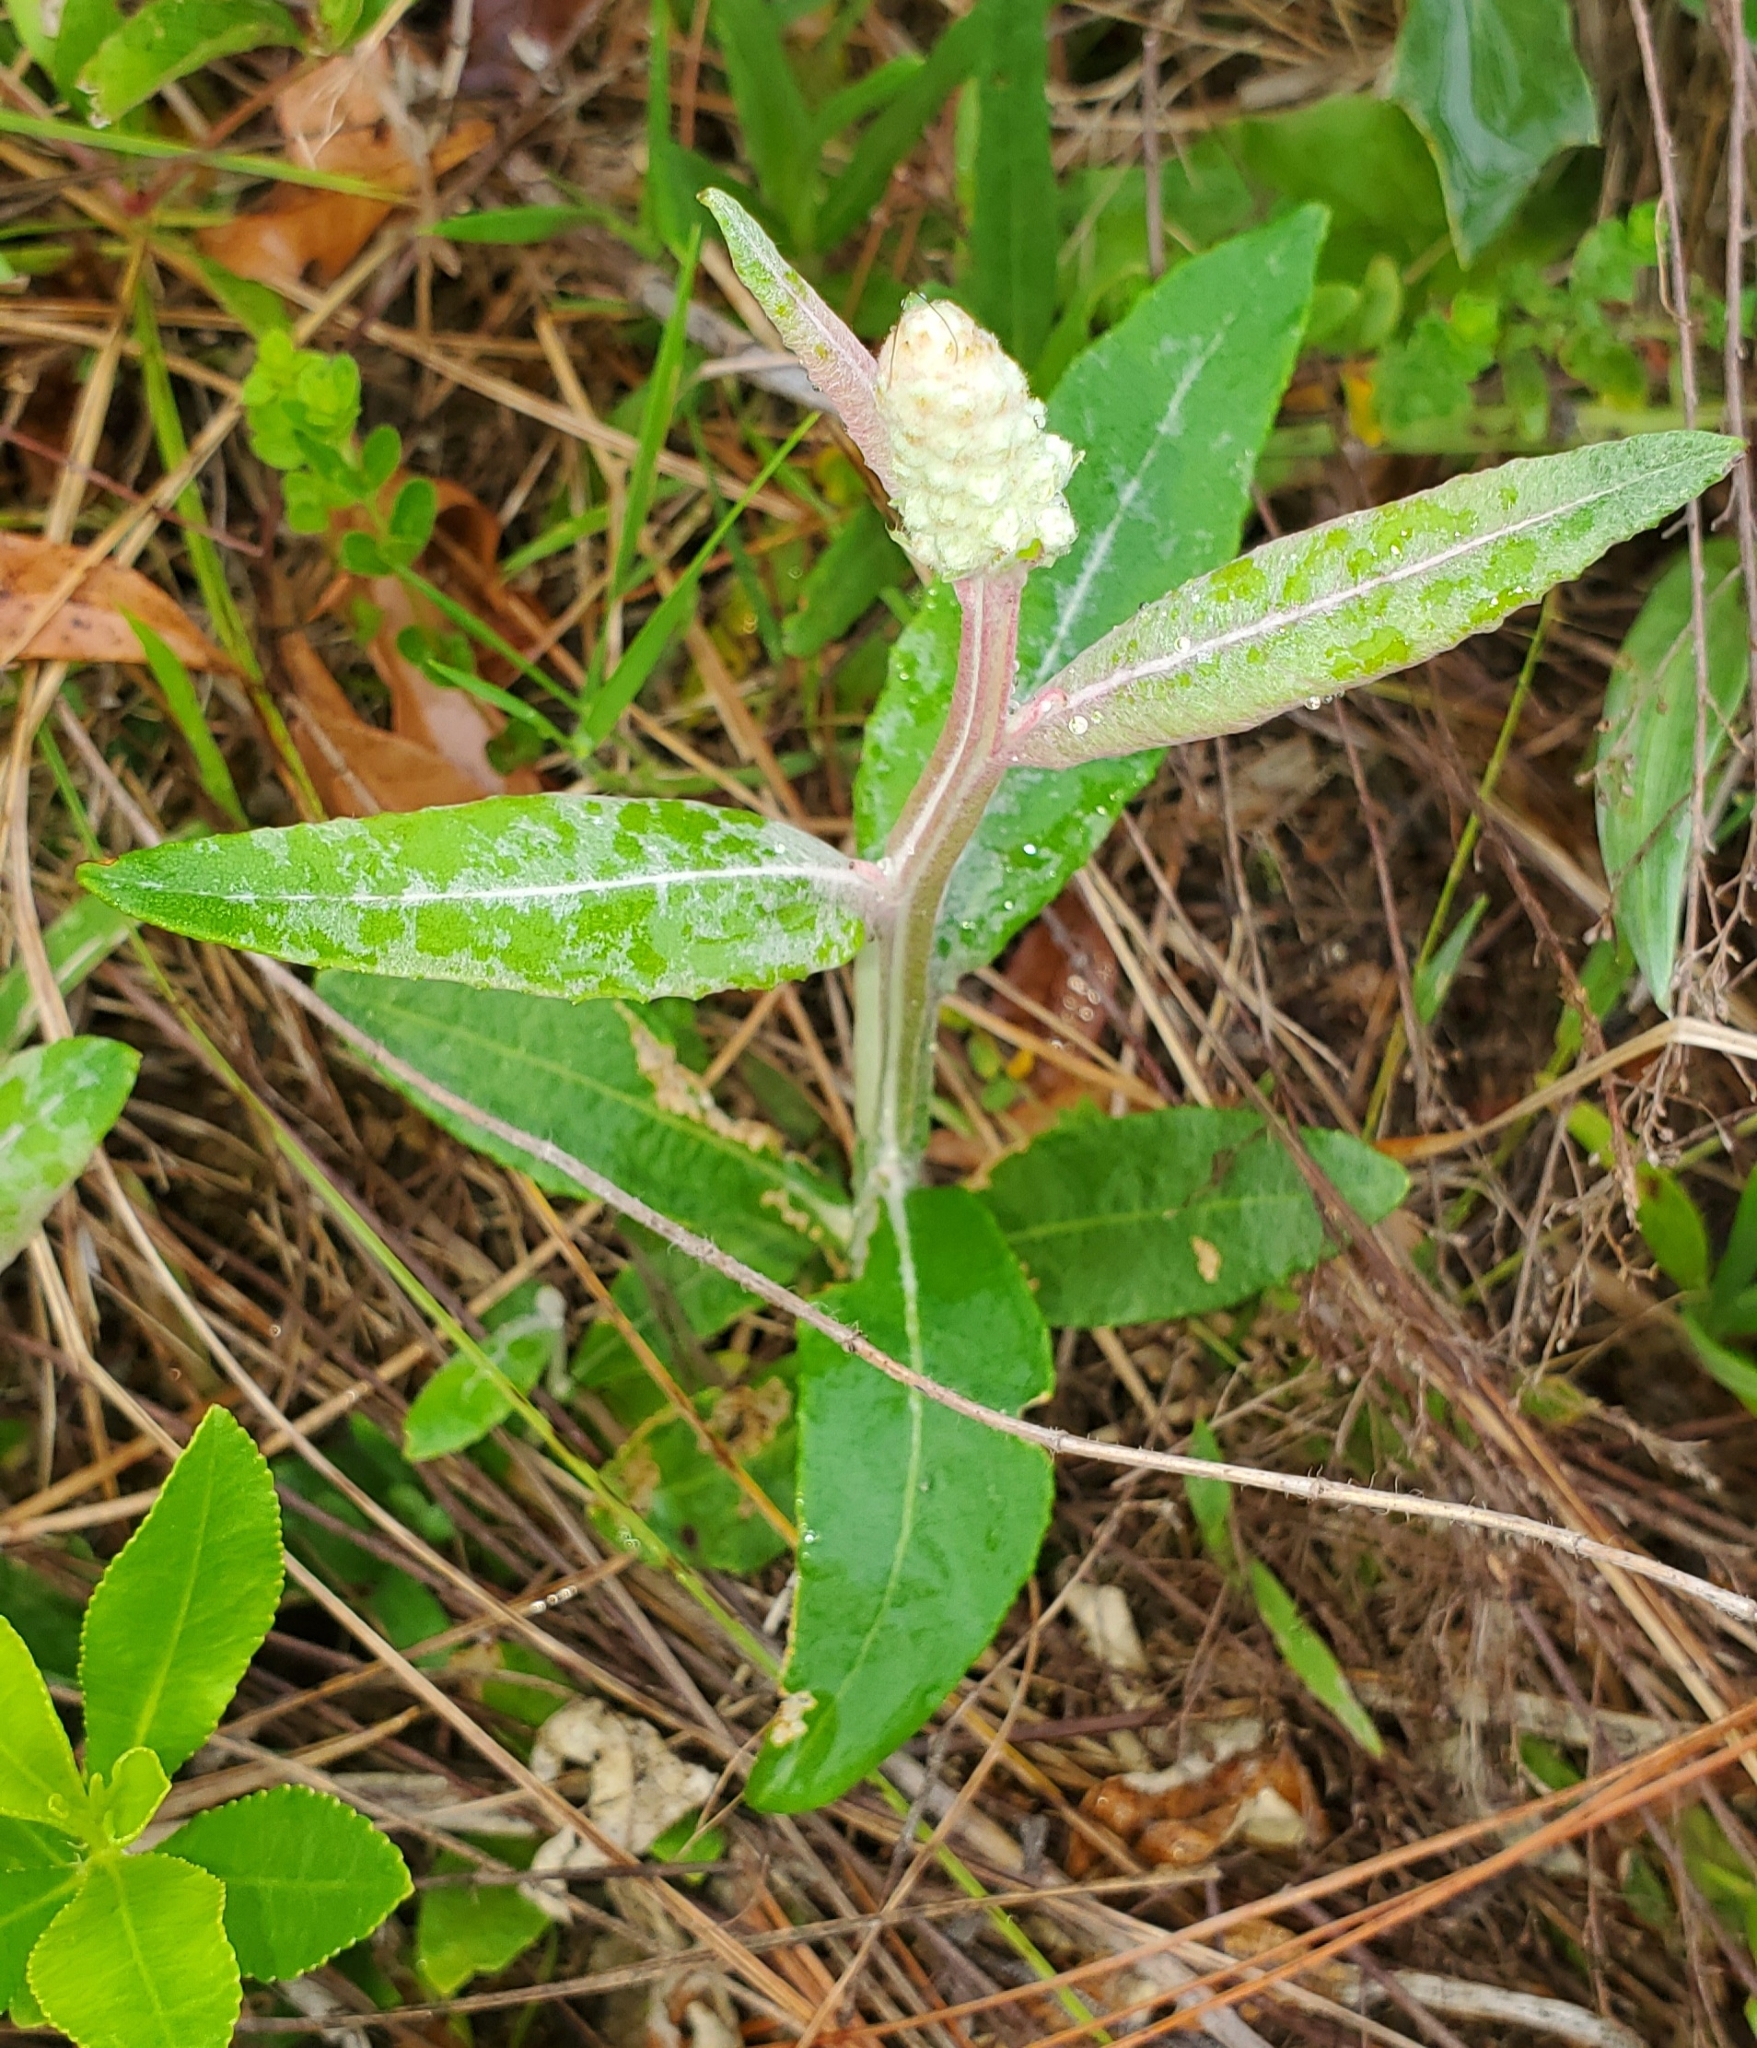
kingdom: Plantae
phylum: Tracheophyta
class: Magnoliopsida
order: Asterales
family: Asteraceae
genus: Pterocaulon
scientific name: Pterocaulon pycnostachyum
